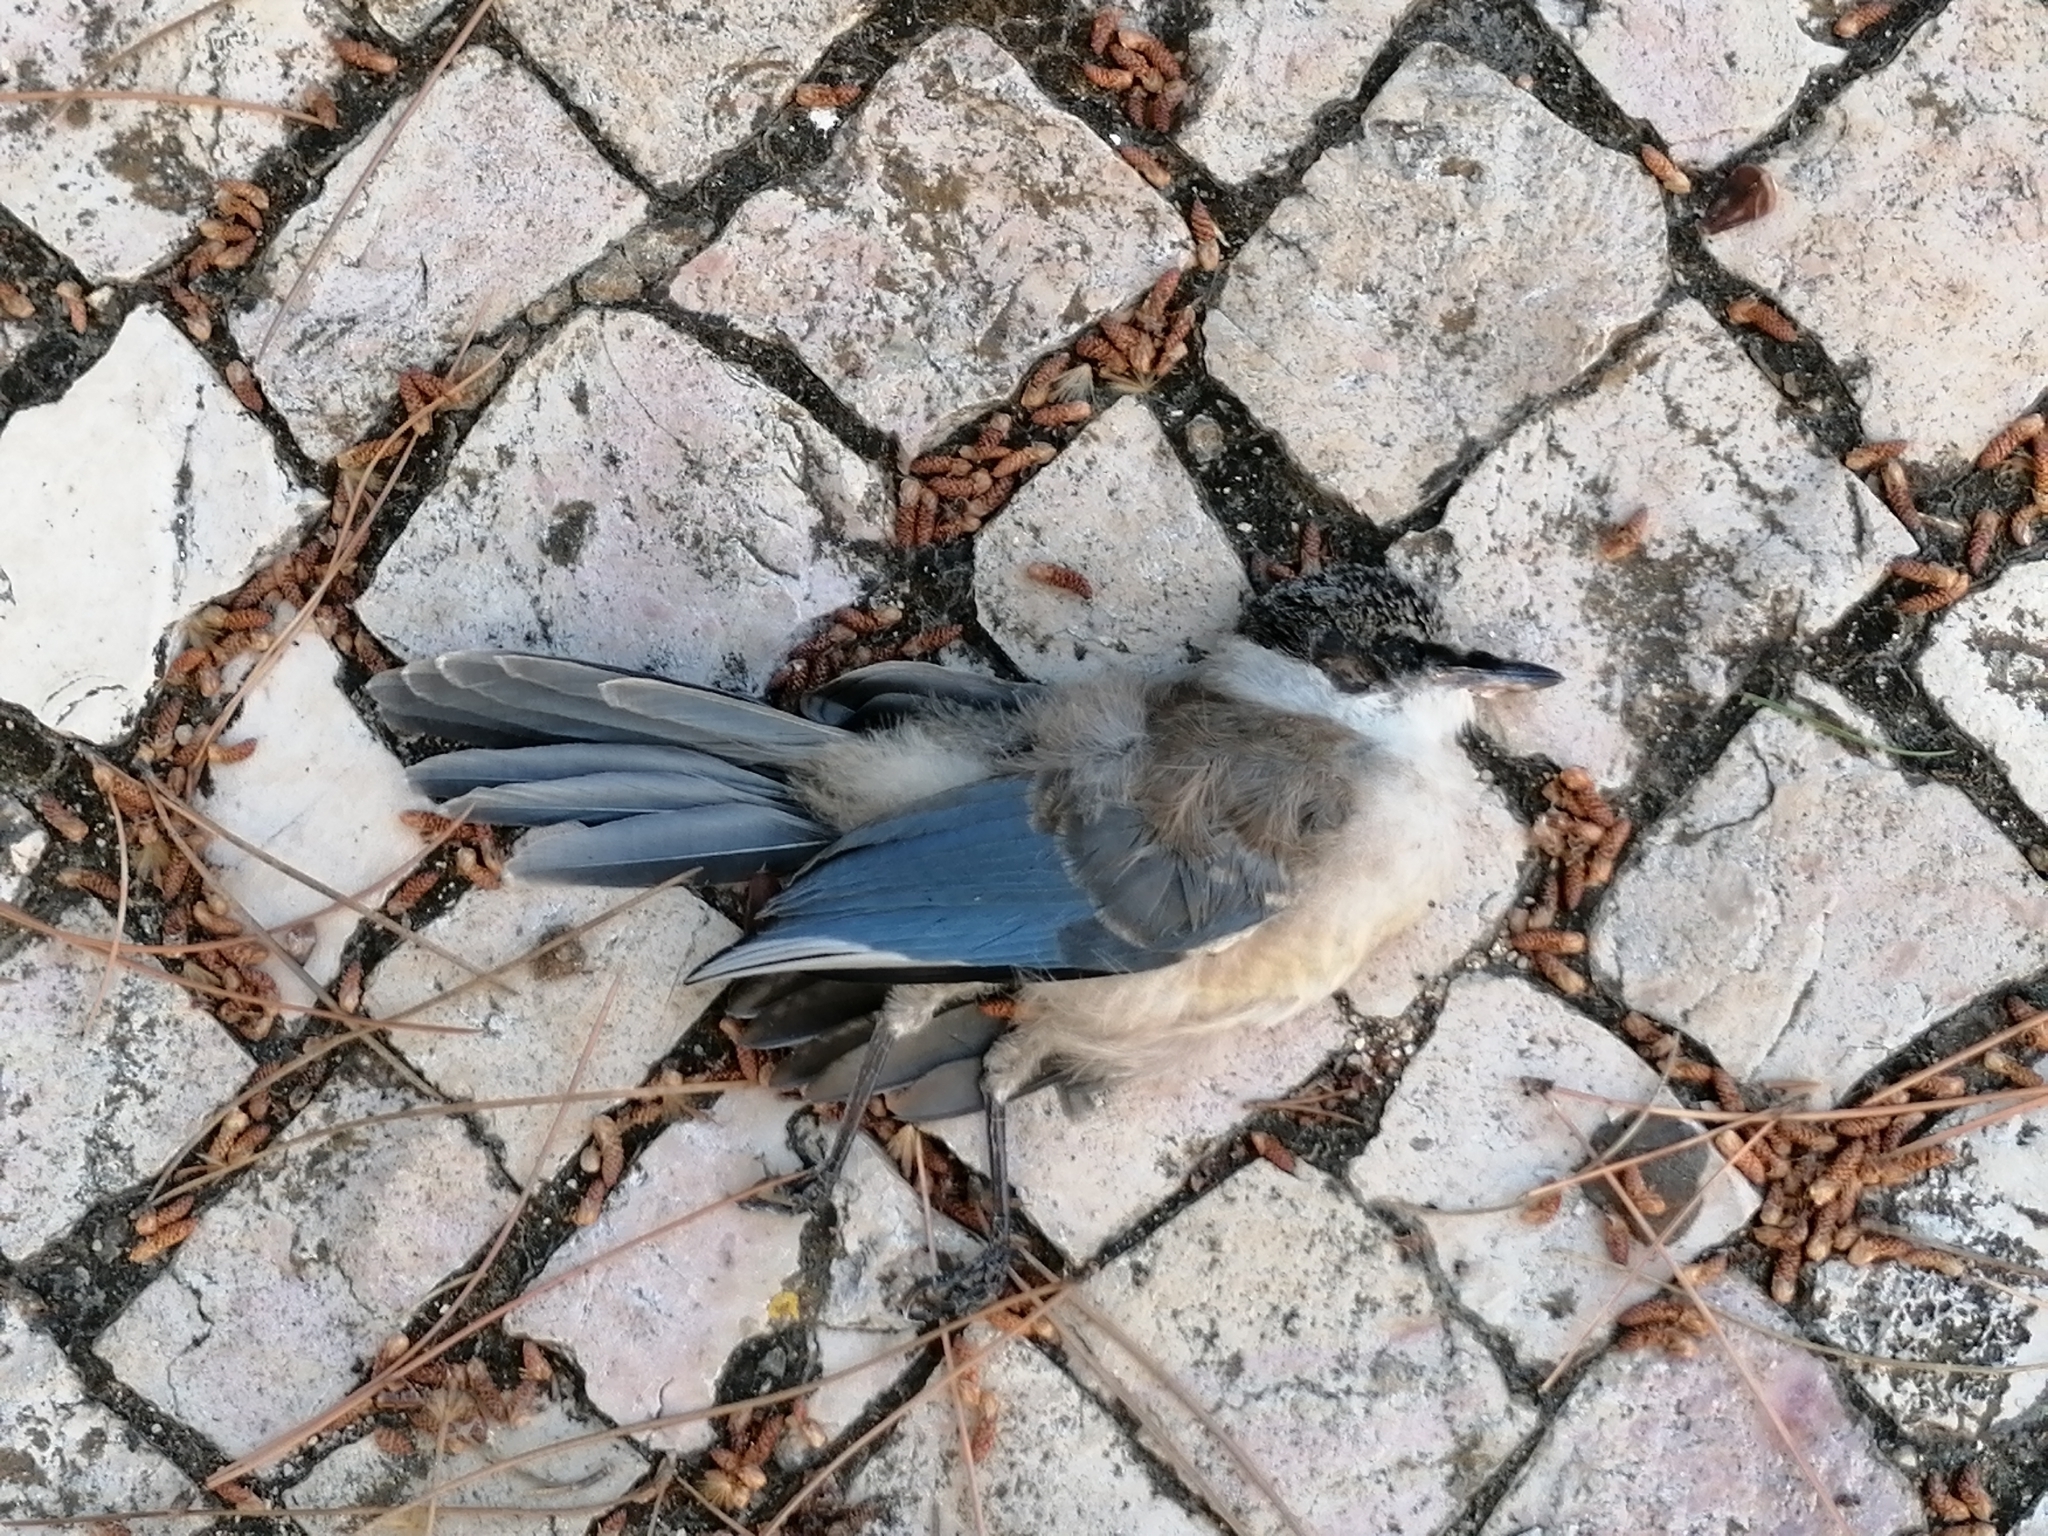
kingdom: Animalia
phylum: Chordata
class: Aves
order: Passeriformes
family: Corvidae
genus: Cyanopica
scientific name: Cyanopica cooki
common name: Iberian magpie
